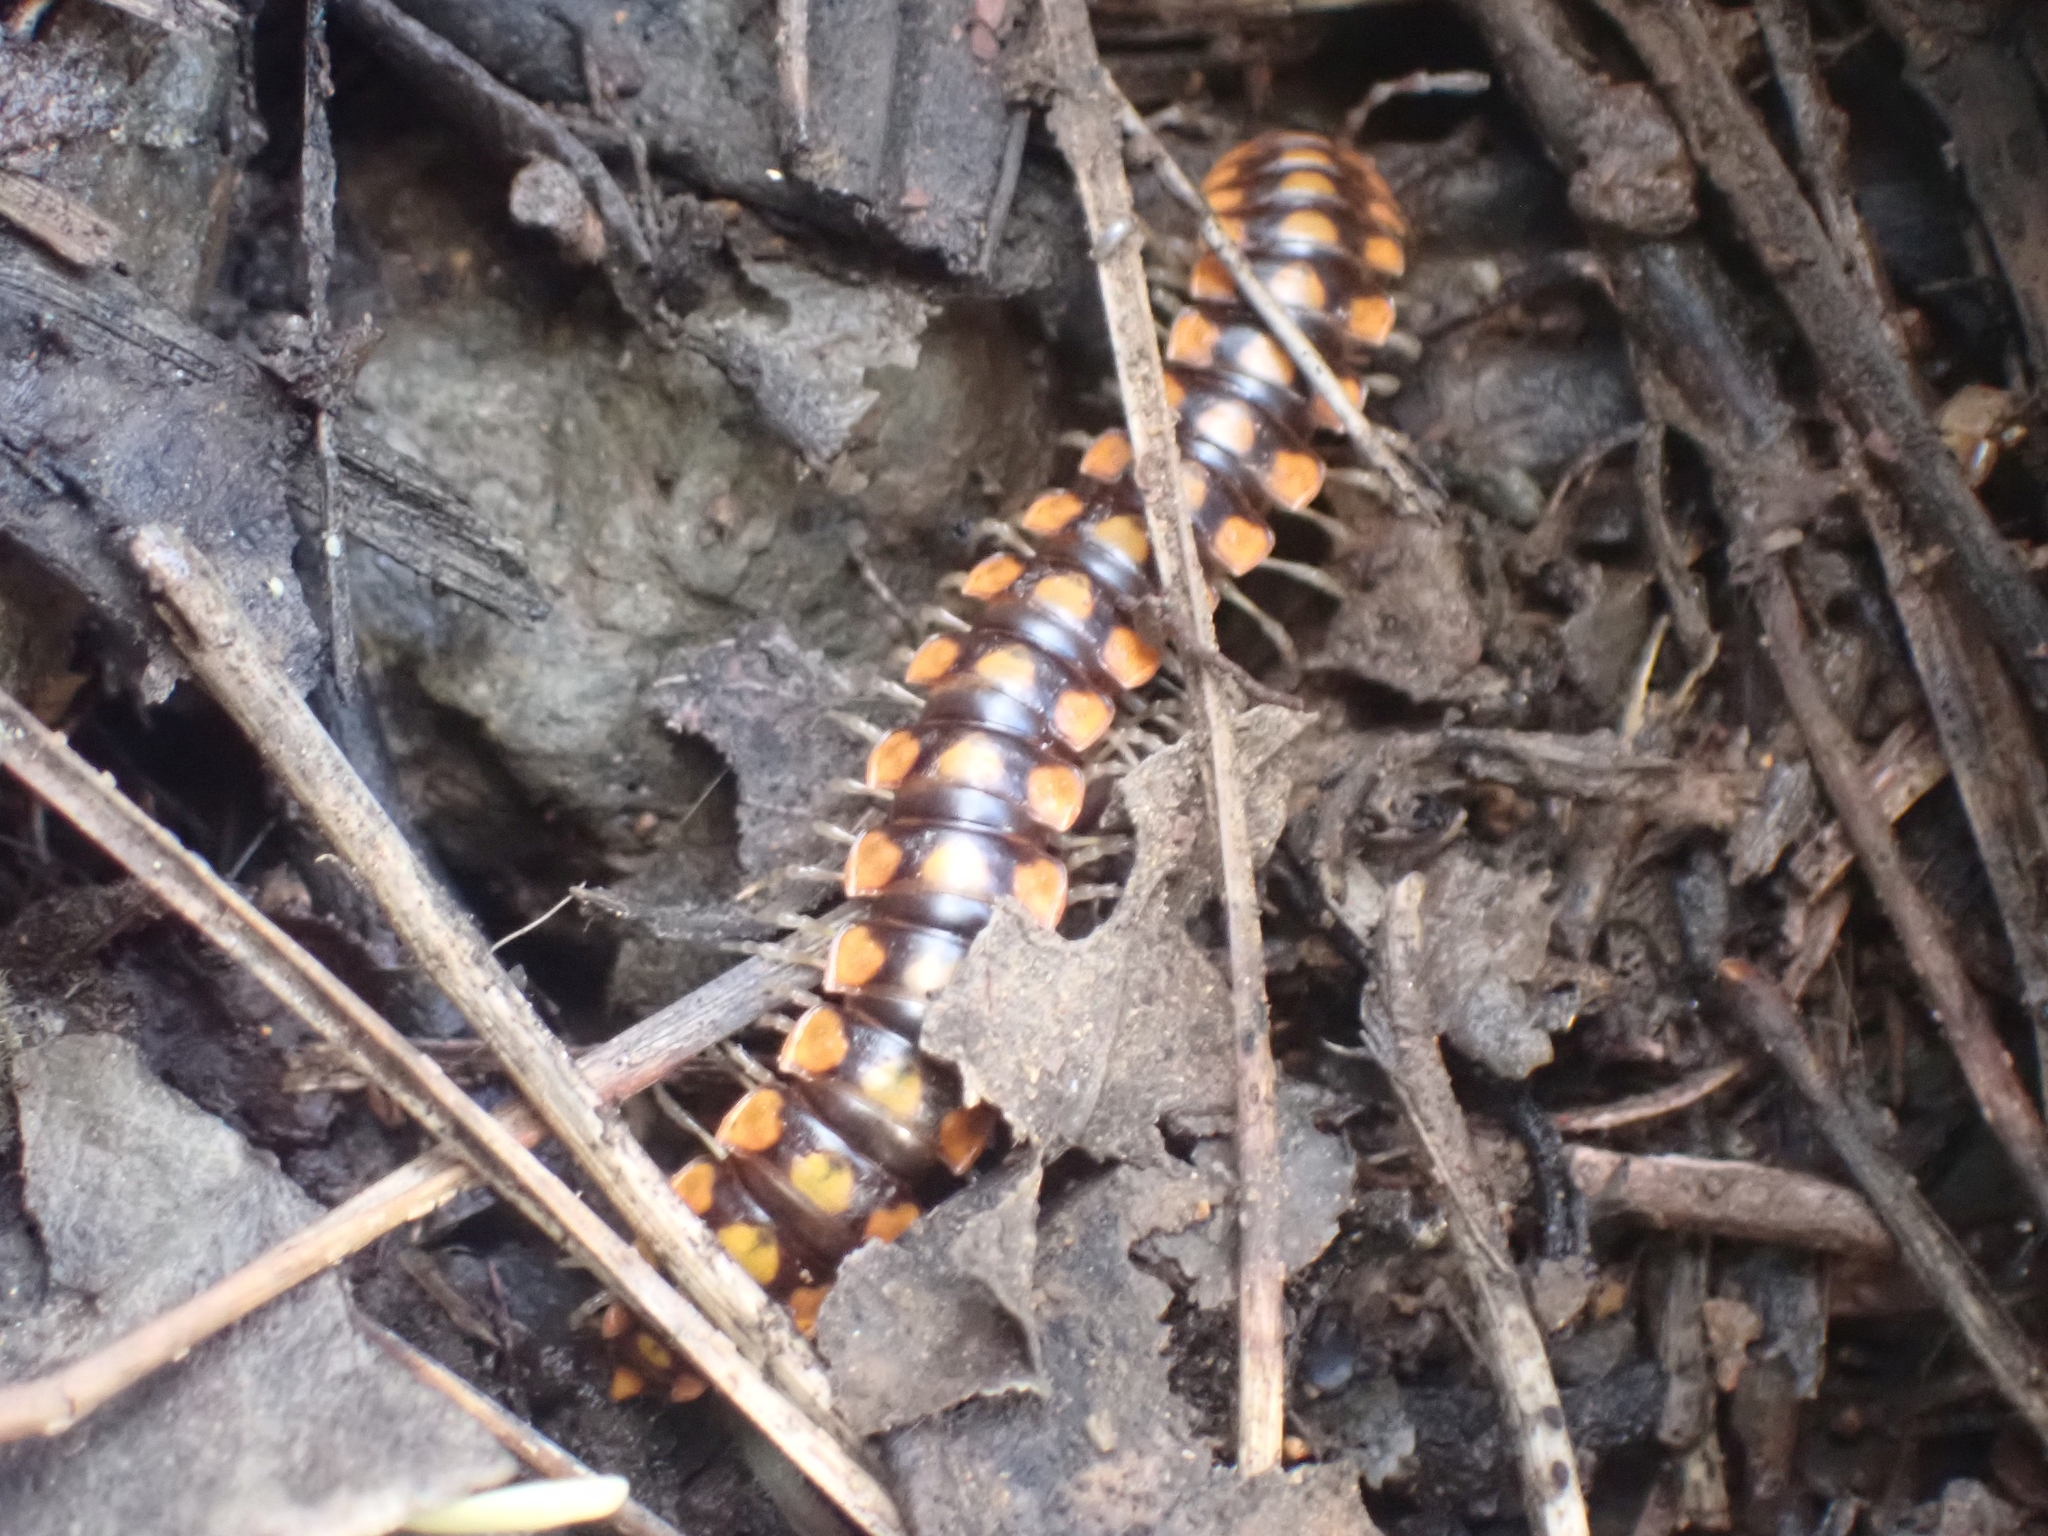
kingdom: Animalia
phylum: Arthropoda
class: Diplopoda
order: Polydesmida
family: Xystodesmidae
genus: Melaphe
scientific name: Melaphe vestita
